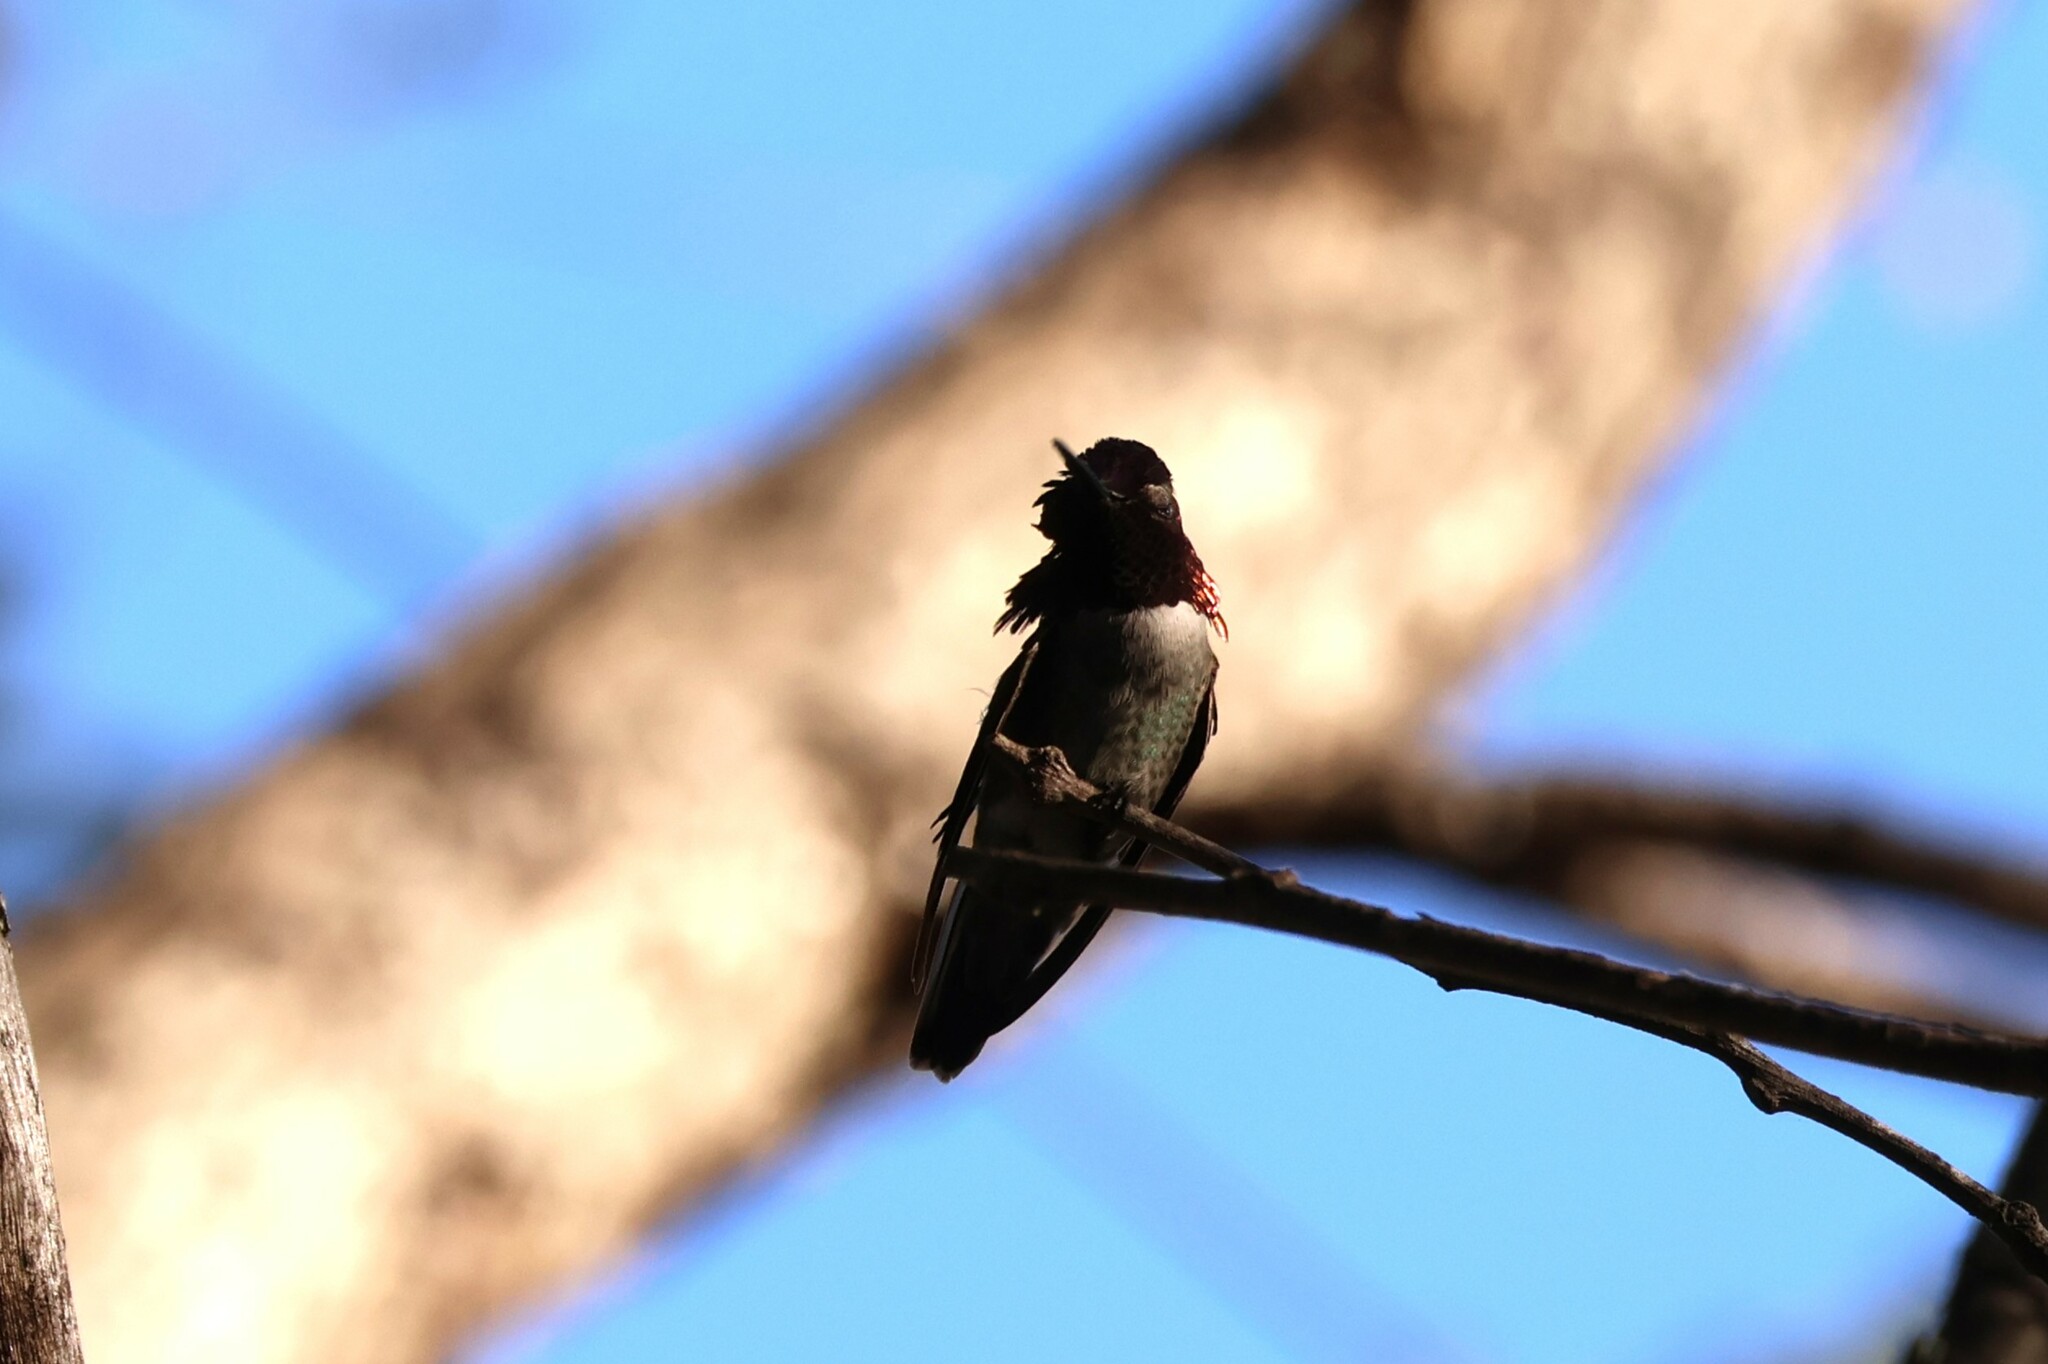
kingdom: Animalia
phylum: Chordata
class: Aves
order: Apodiformes
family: Trochilidae
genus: Calypte
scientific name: Calypte anna
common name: Anna's hummingbird
